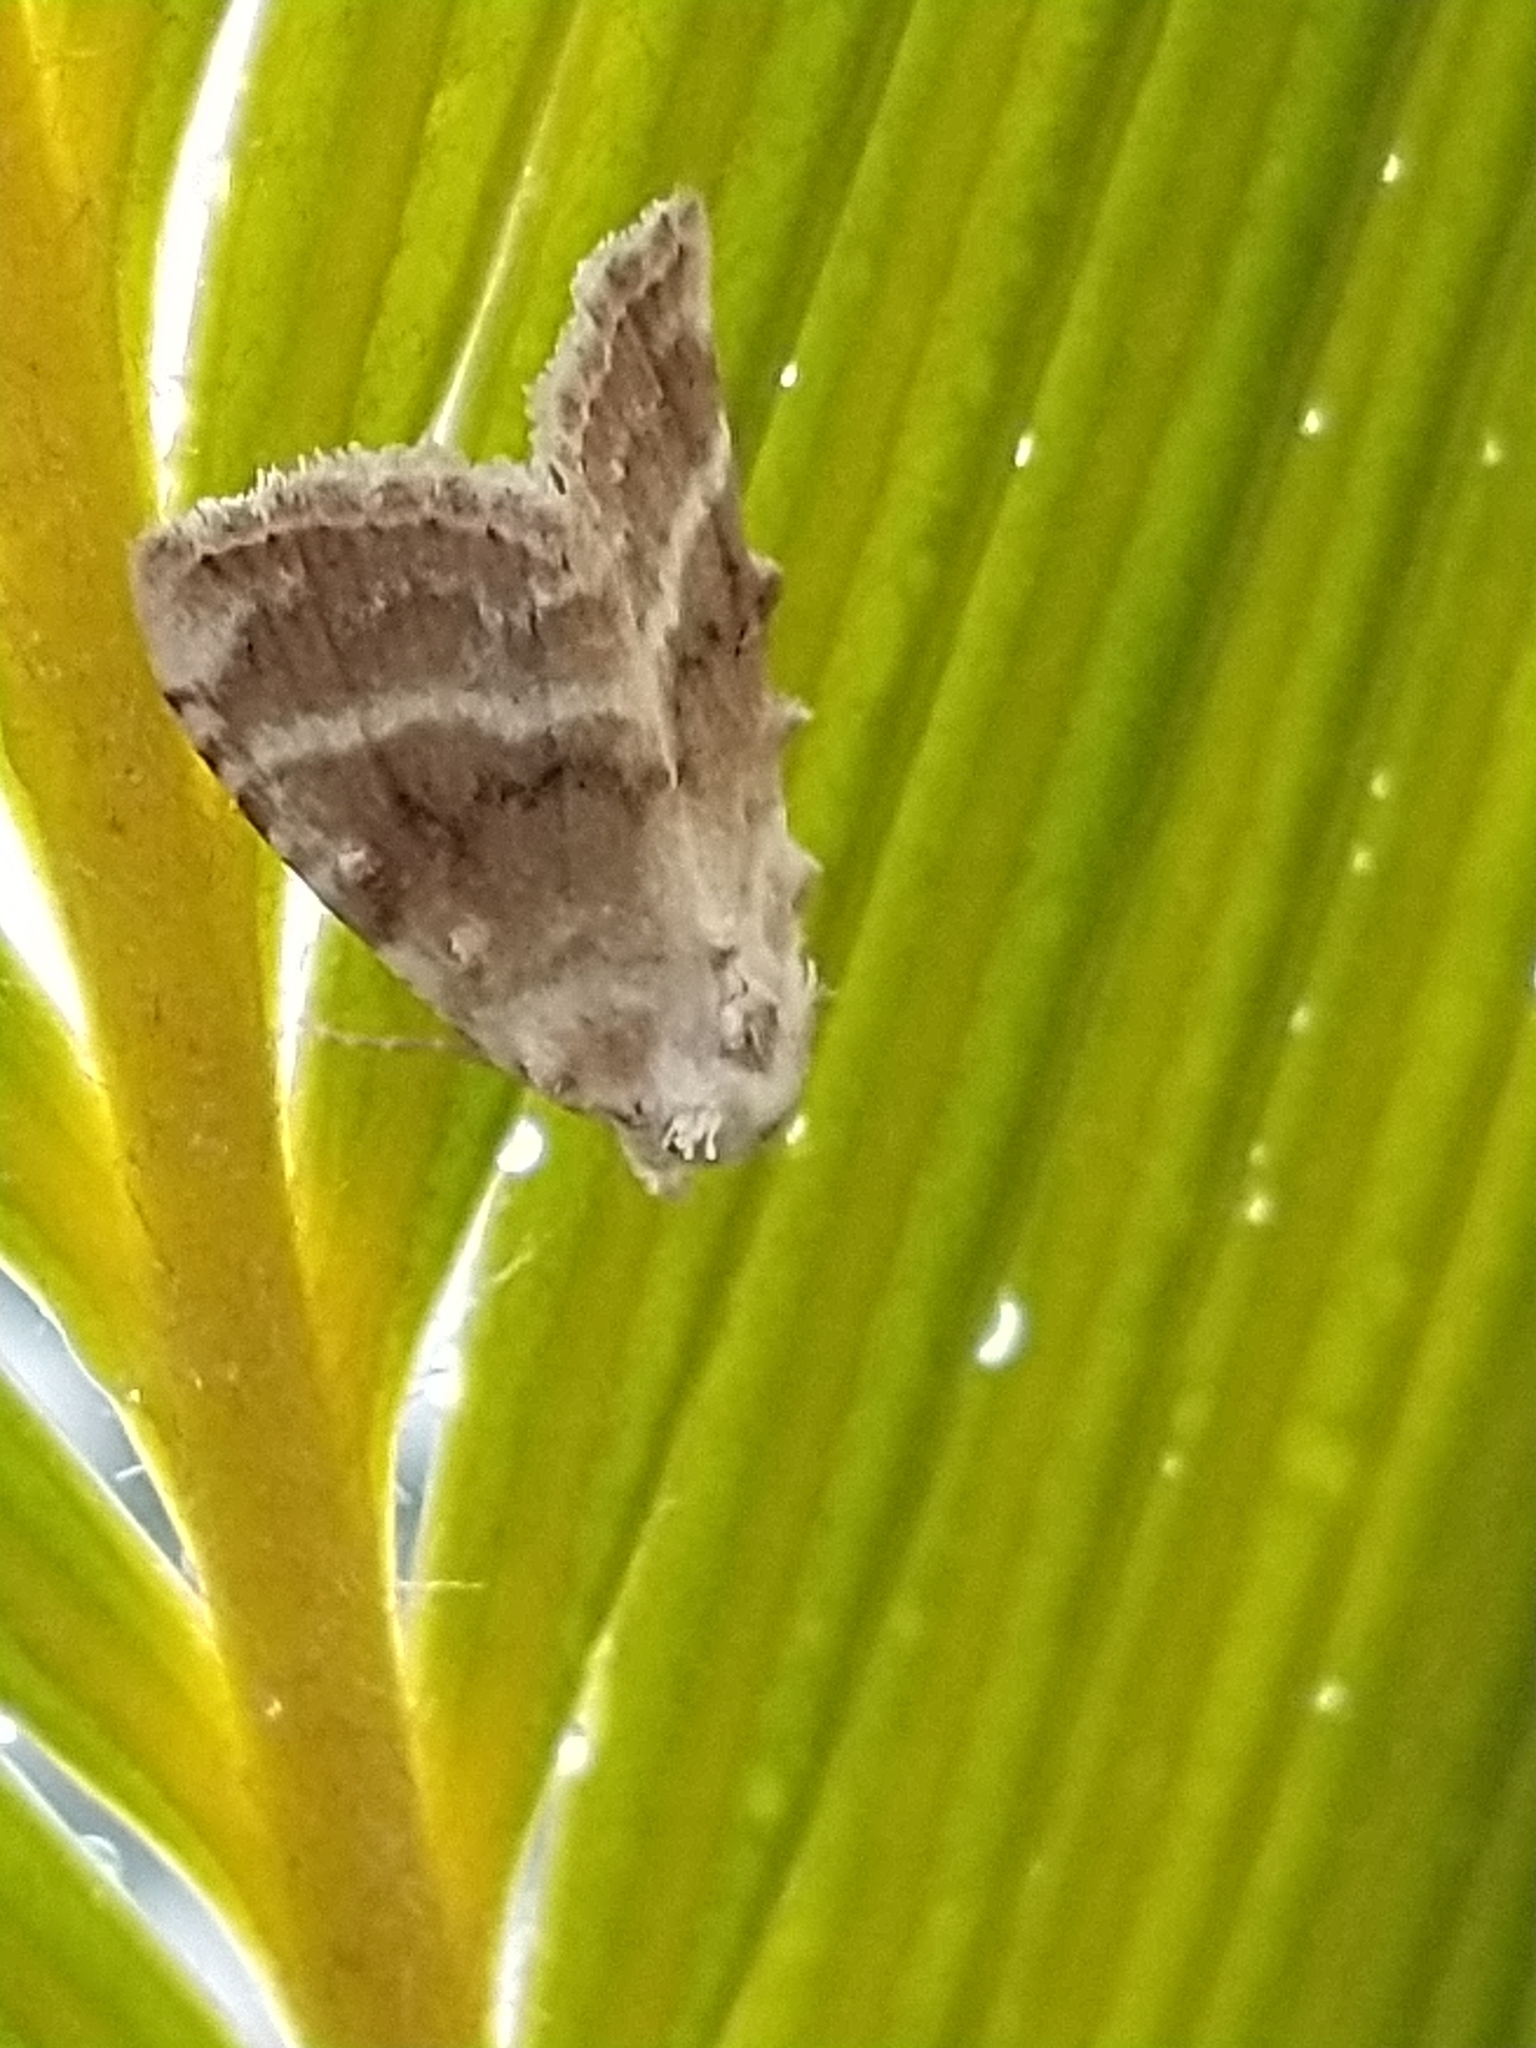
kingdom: Animalia
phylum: Arthropoda
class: Insecta
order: Lepidoptera
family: Nolidae
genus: Meganola
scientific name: Meganola albula
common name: Kent black arches
